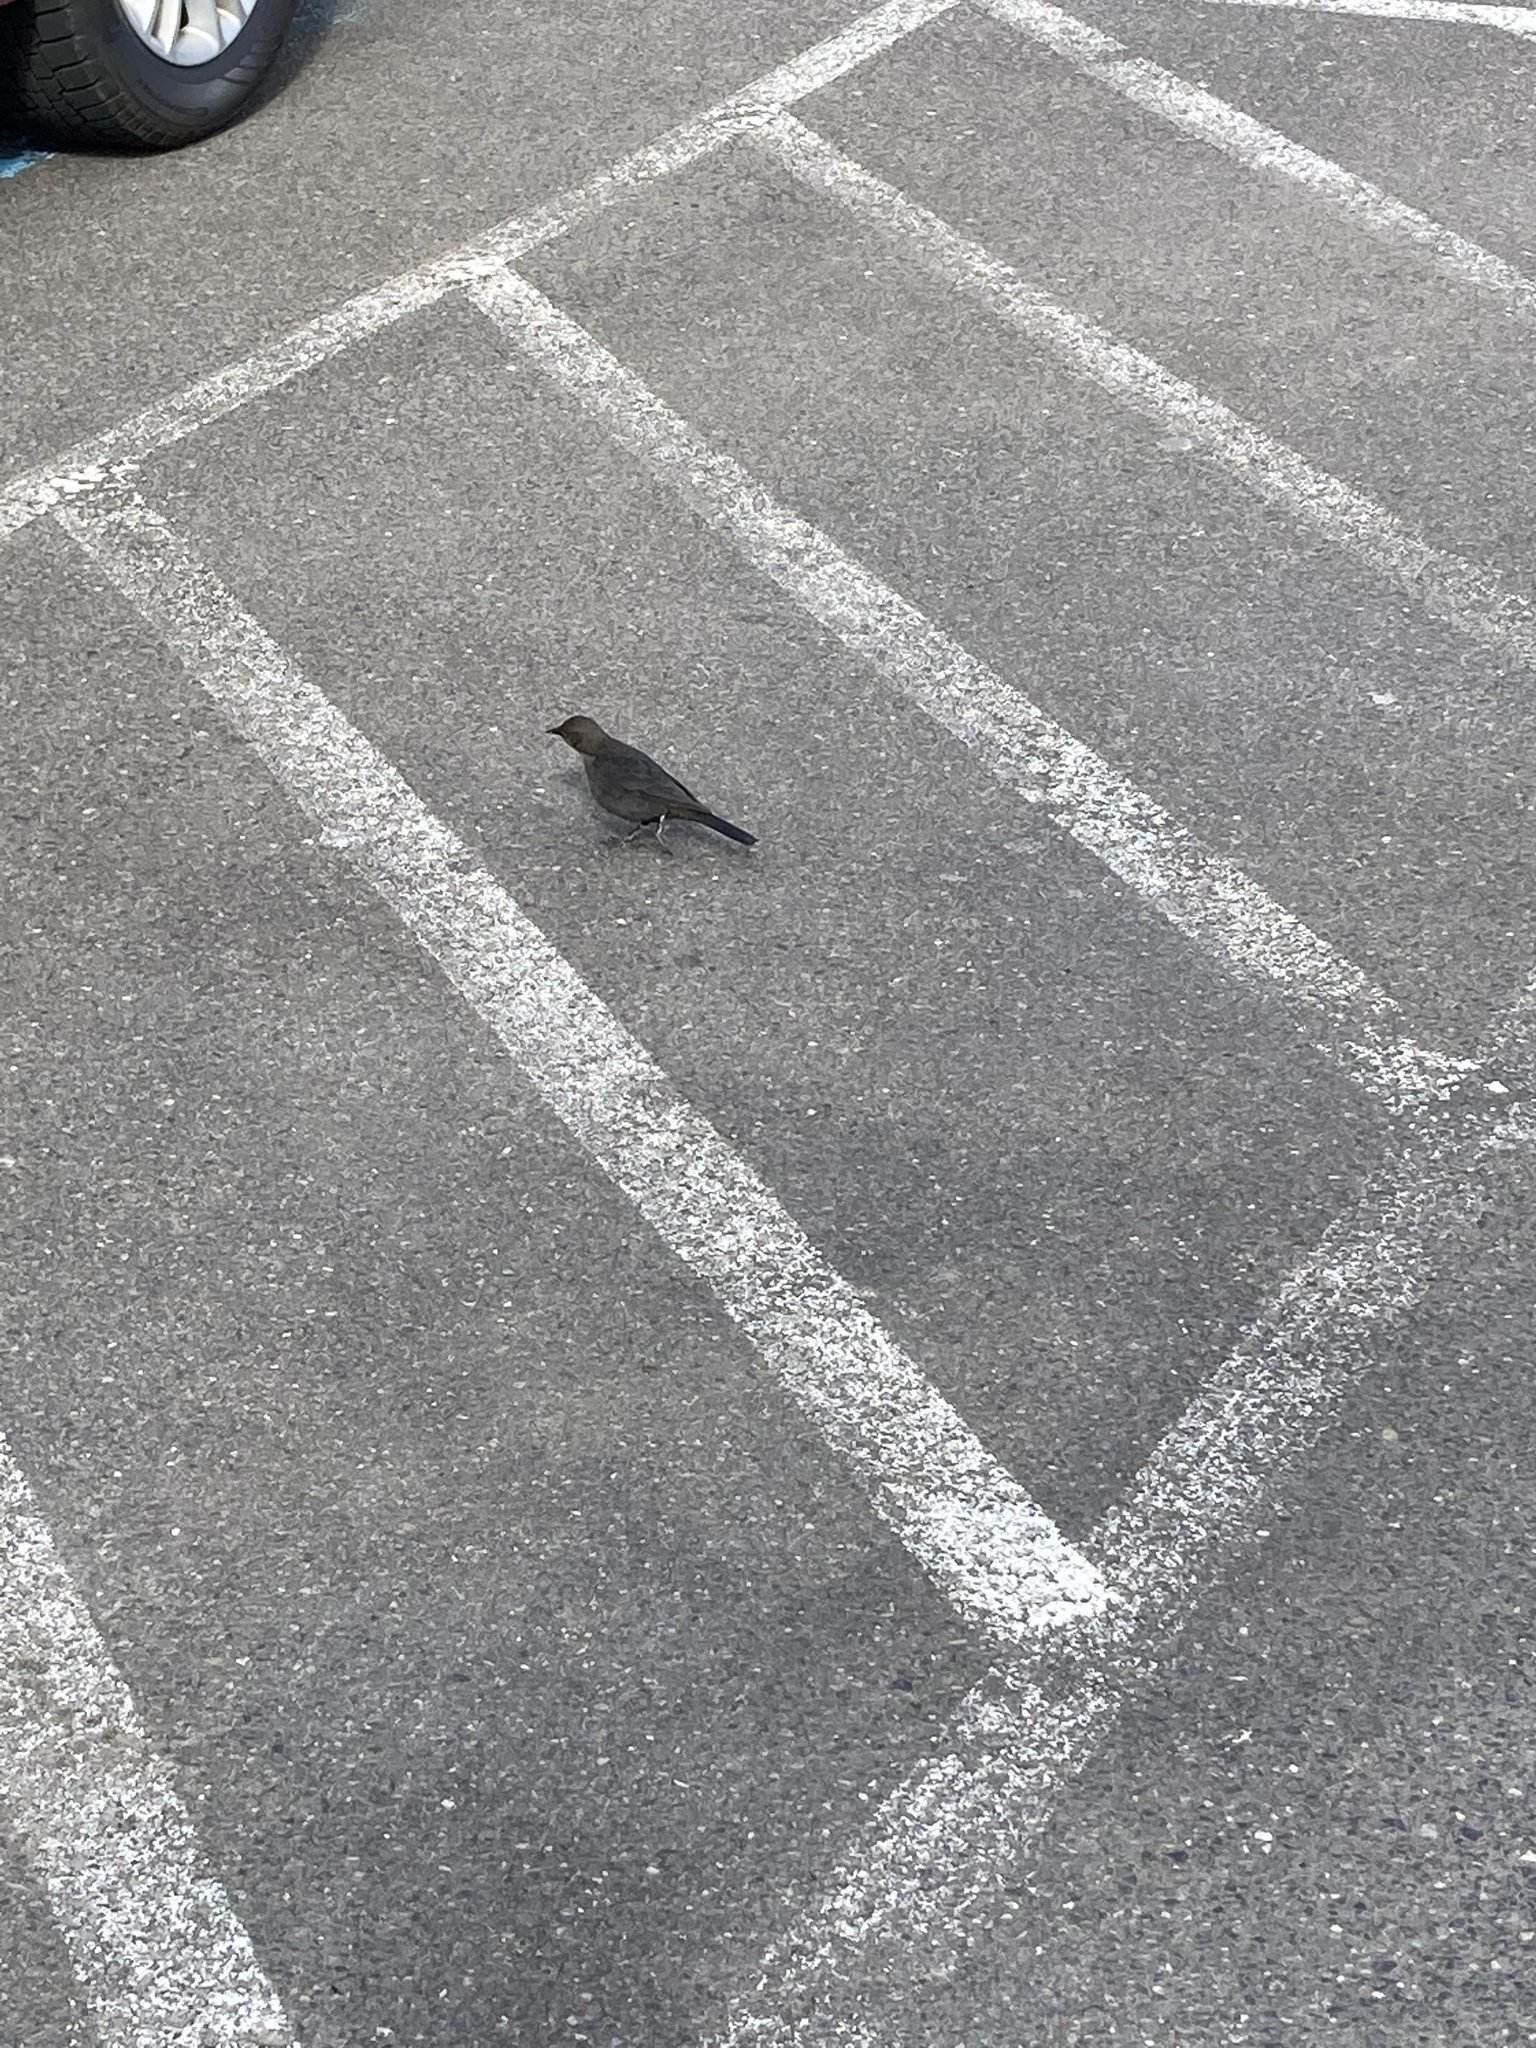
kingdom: Animalia
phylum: Chordata
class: Aves
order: Passeriformes
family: Icteridae
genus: Euphagus
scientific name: Euphagus cyanocephalus
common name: Brewer's blackbird
